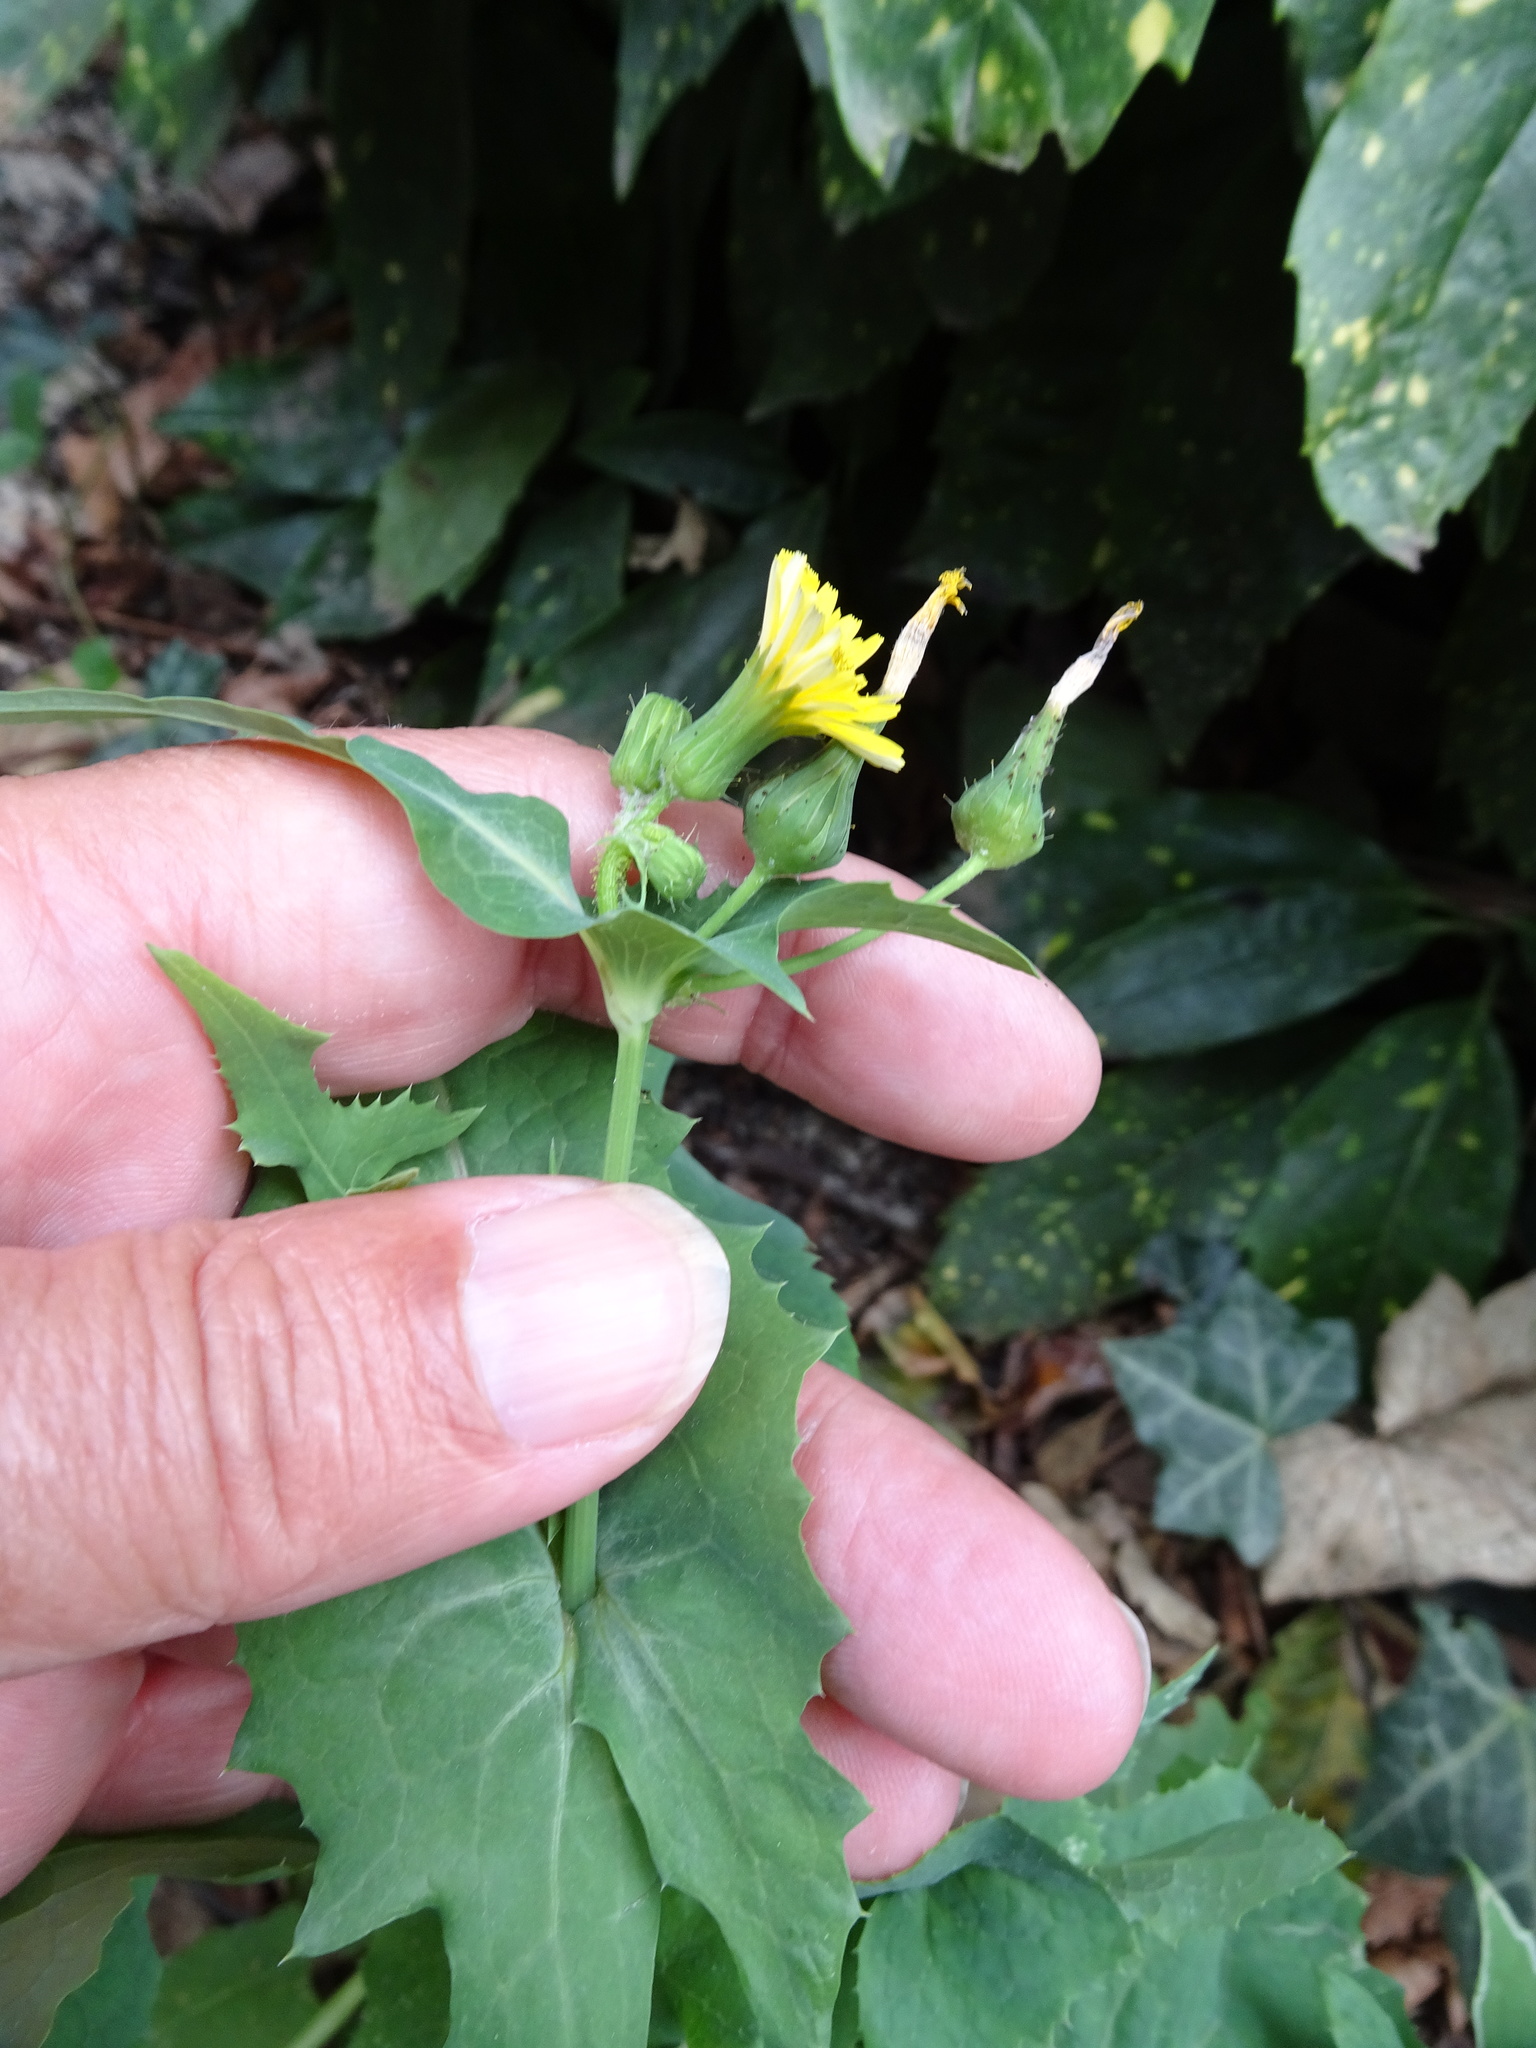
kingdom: Plantae
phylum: Tracheophyta
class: Magnoliopsida
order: Asterales
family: Asteraceae
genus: Sonchus
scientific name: Sonchus oleraceus
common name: Common sowthistle
